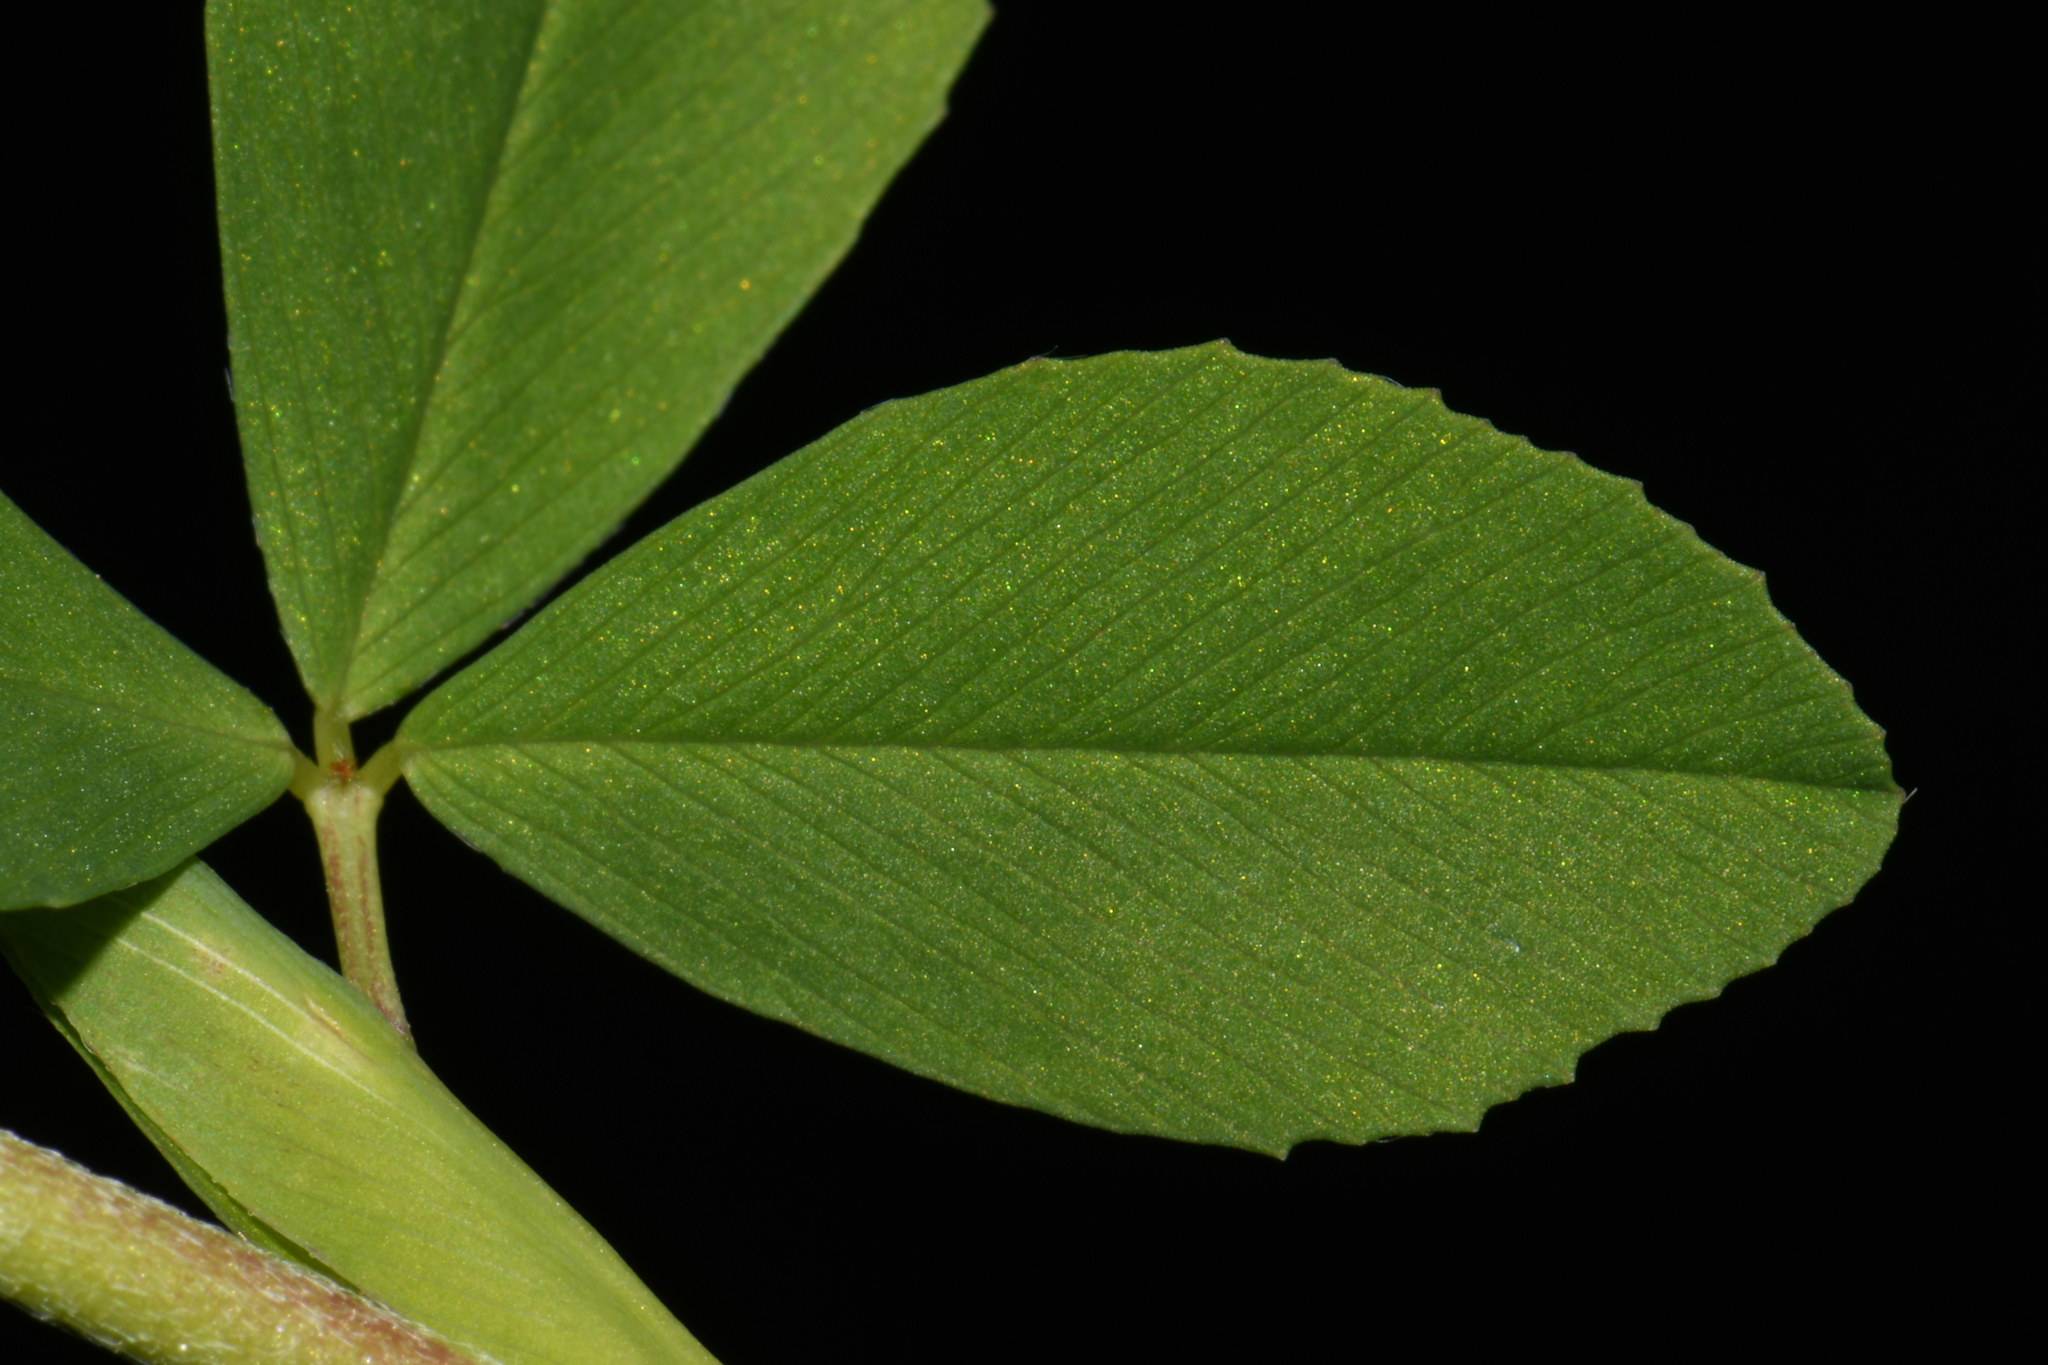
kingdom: Plantae
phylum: Tracheophyta
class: Magnoliopsida
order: Fabales
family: Fabaceae
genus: Trifolium
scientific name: Trifolium aureum
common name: Golden clover
